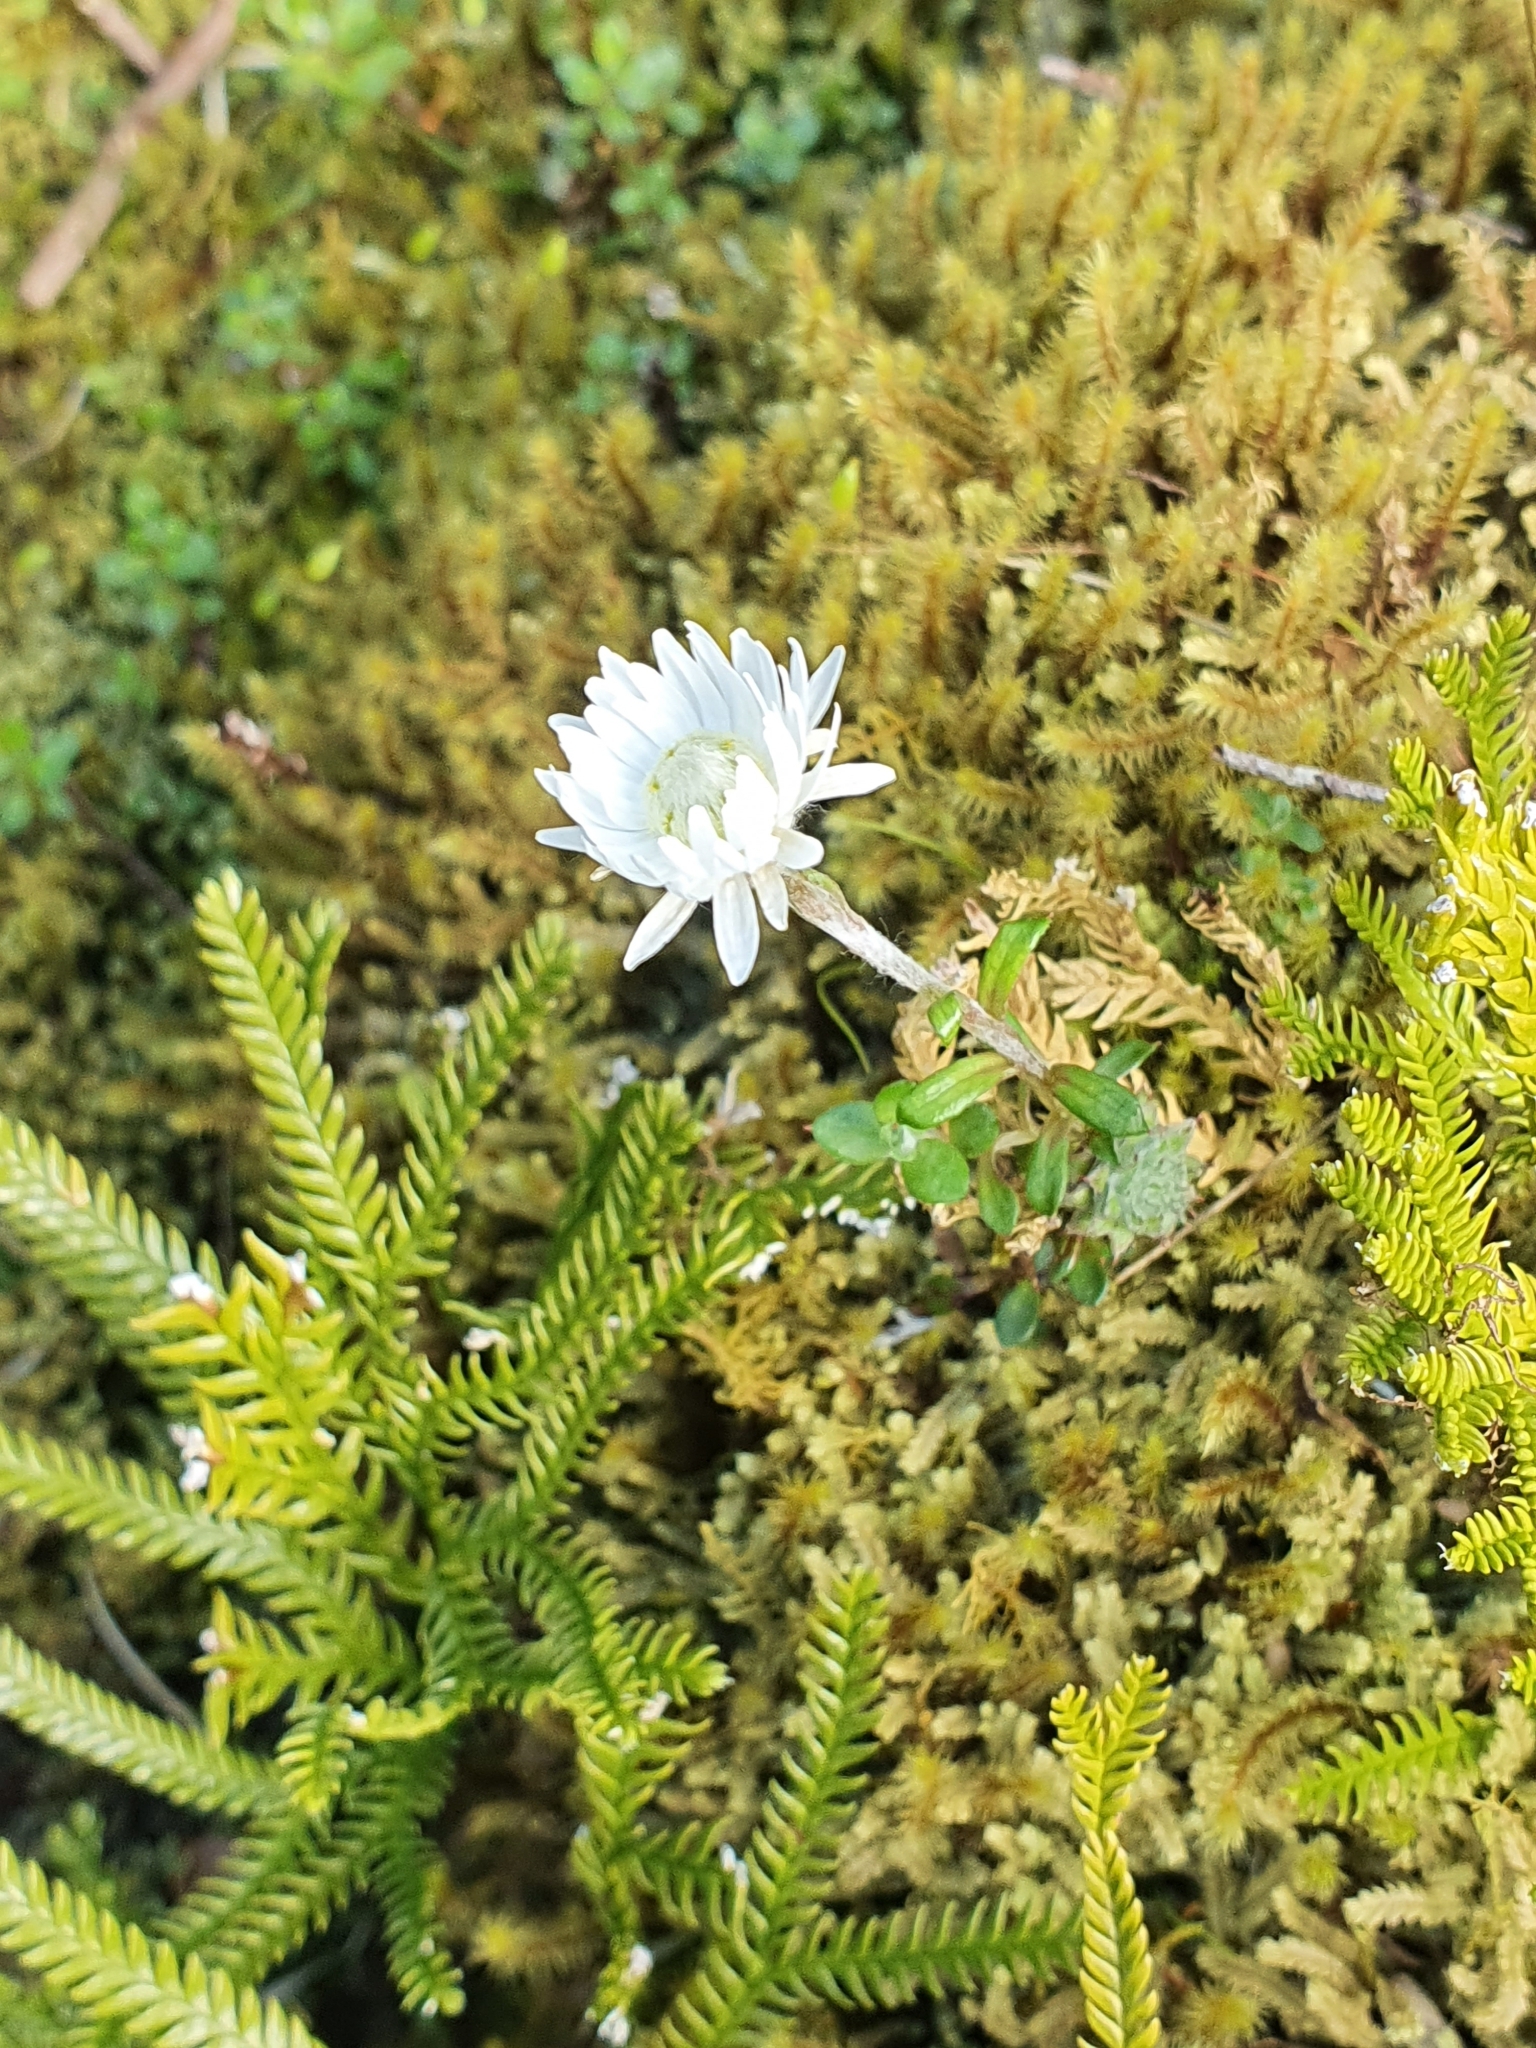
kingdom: Plantae
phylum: Tracheophyta
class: Magnoliopsida
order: Asterales
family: Asteraceae
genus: Anaphalioides
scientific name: Anaphalioides bellidioides
